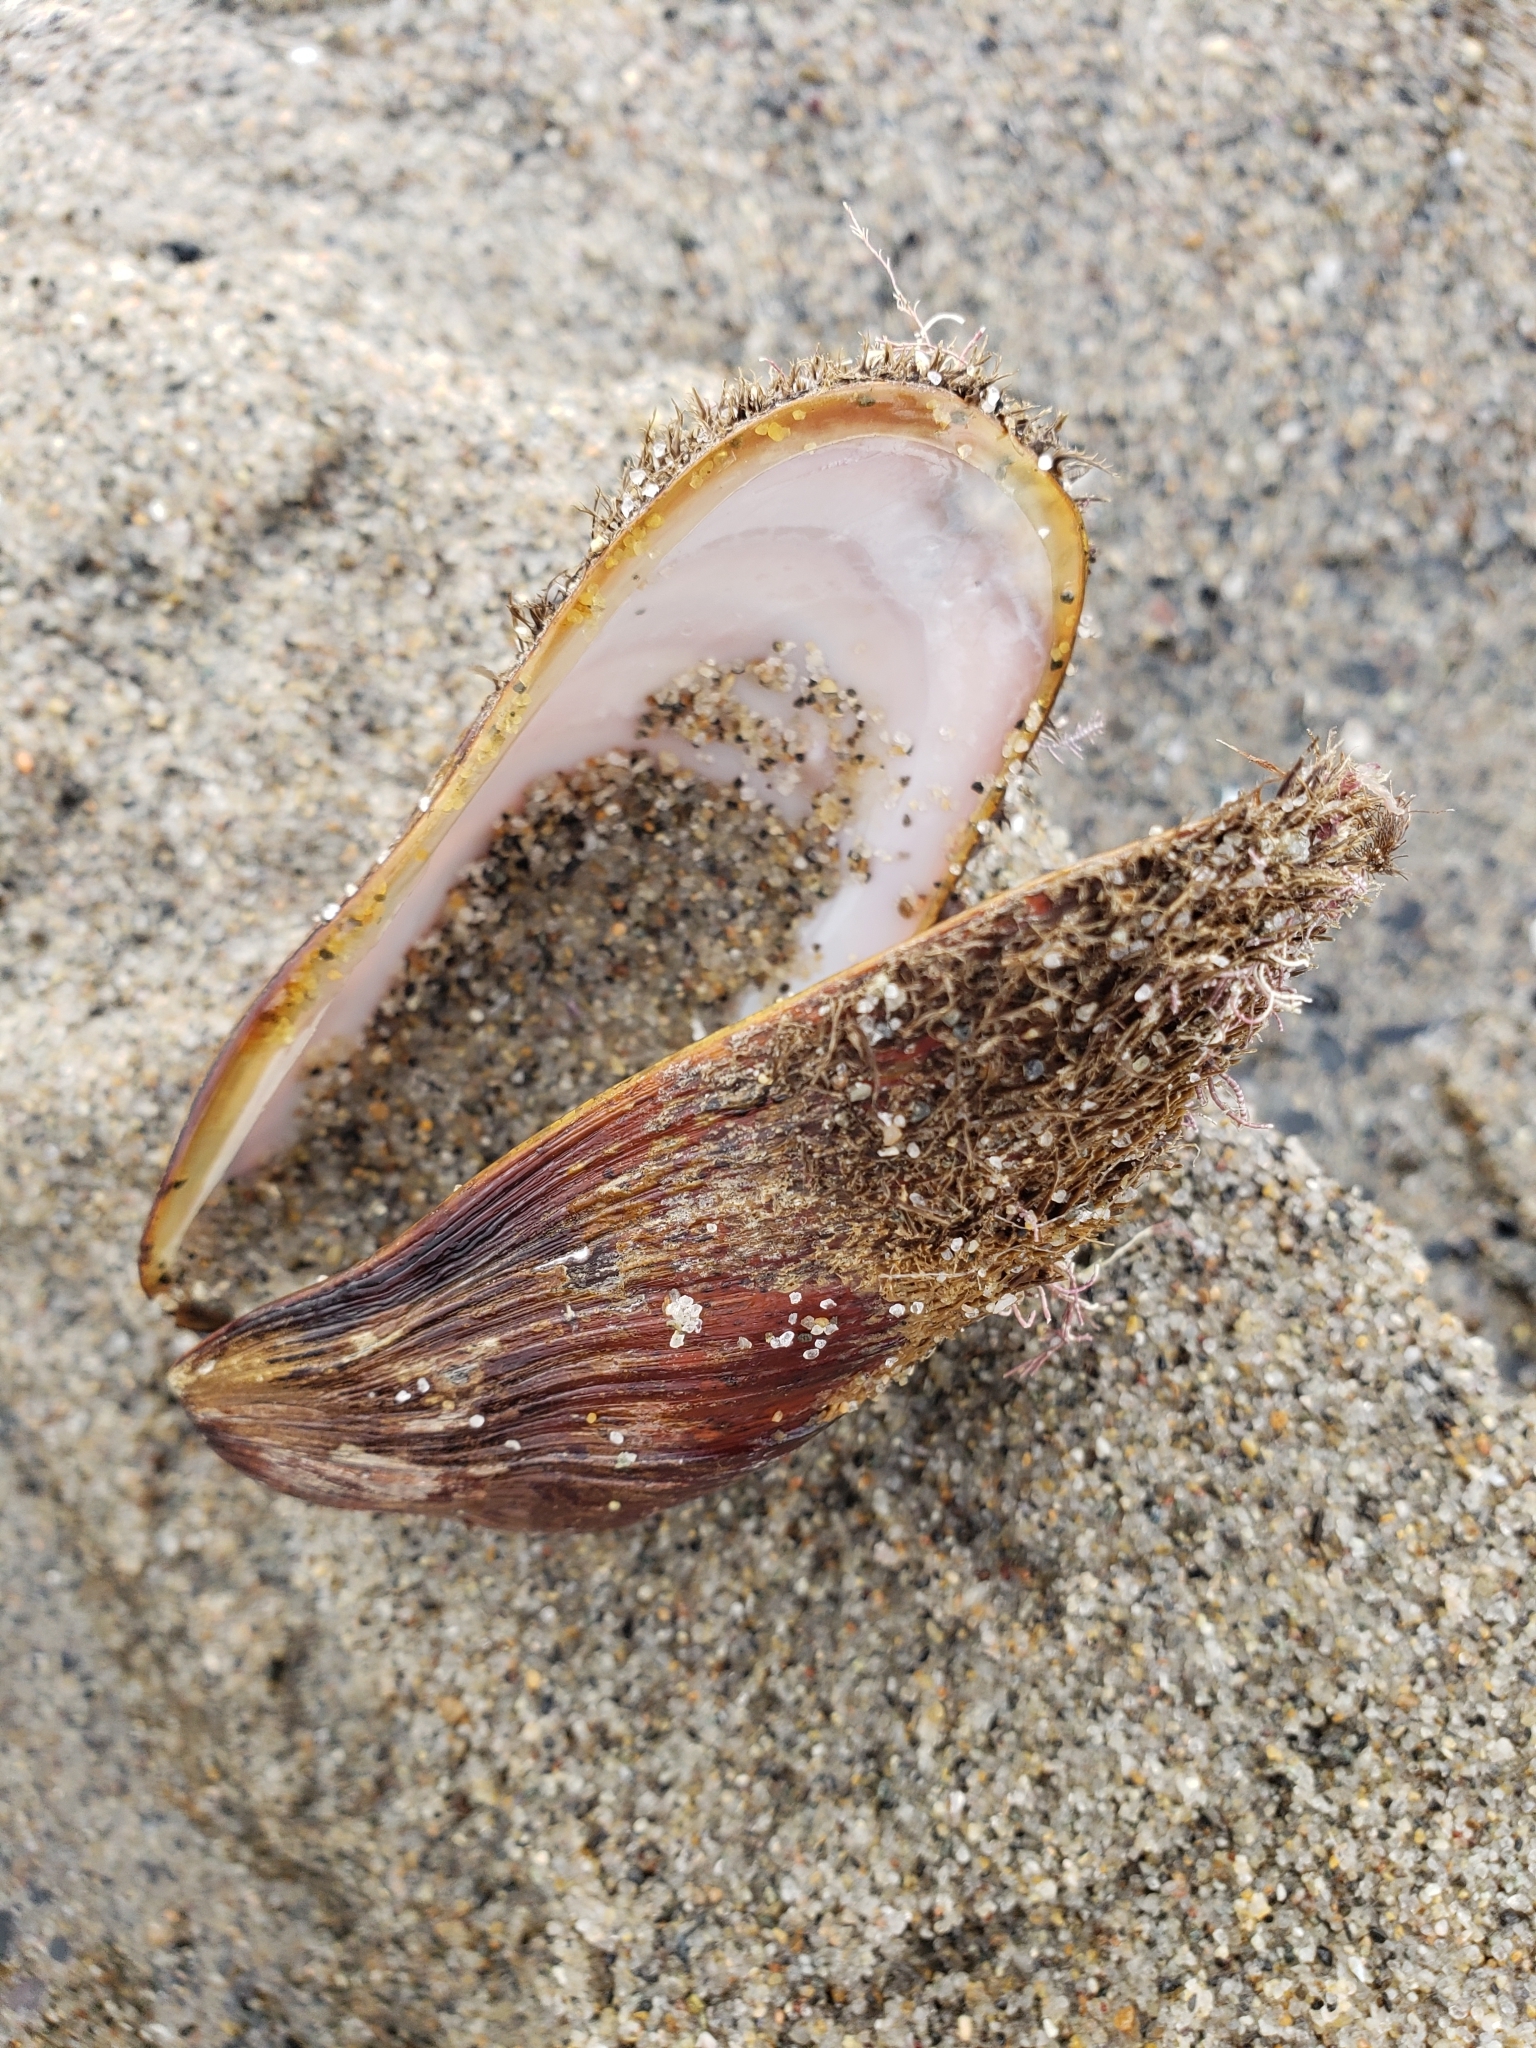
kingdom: Animalia
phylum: Mollusca
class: Bivalvia
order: Mytilida
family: Mytilidae
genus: Modiolus
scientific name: Modiolus capax
